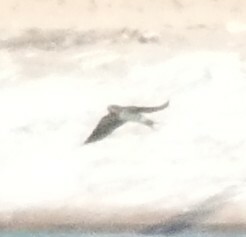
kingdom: Animalia
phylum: Chordata
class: Aves
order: Passeriformes
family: Hirundinidae
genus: Hirundo
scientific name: Hirundo rustica
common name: Barn swallow
